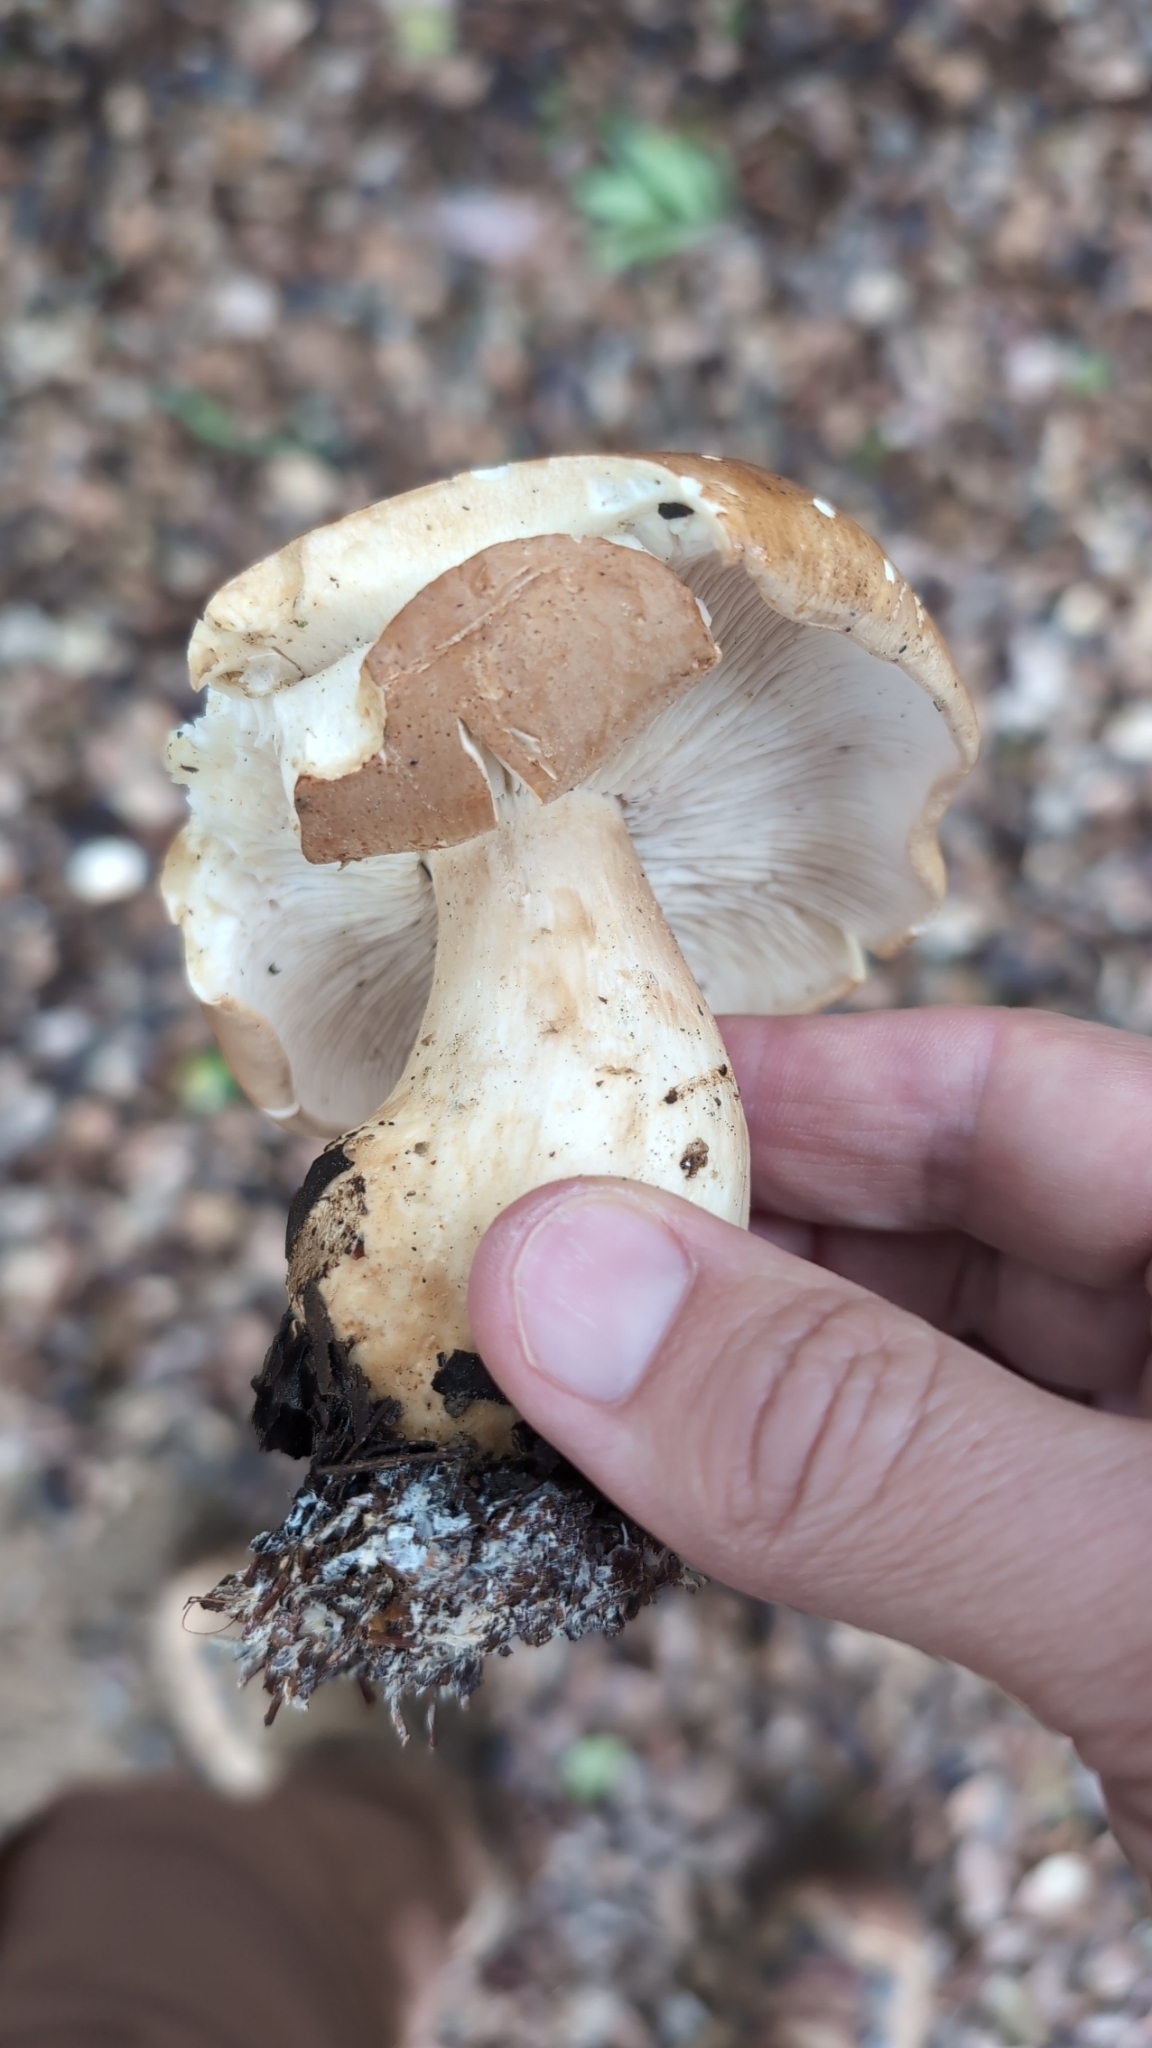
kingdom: Fungi
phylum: Basidiomycota
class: Agaricomycetes
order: Agaricales
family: Tricholomataceae
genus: Leucopaxillus
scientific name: Leucopaxillus gentianeus
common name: Bitter funnel
